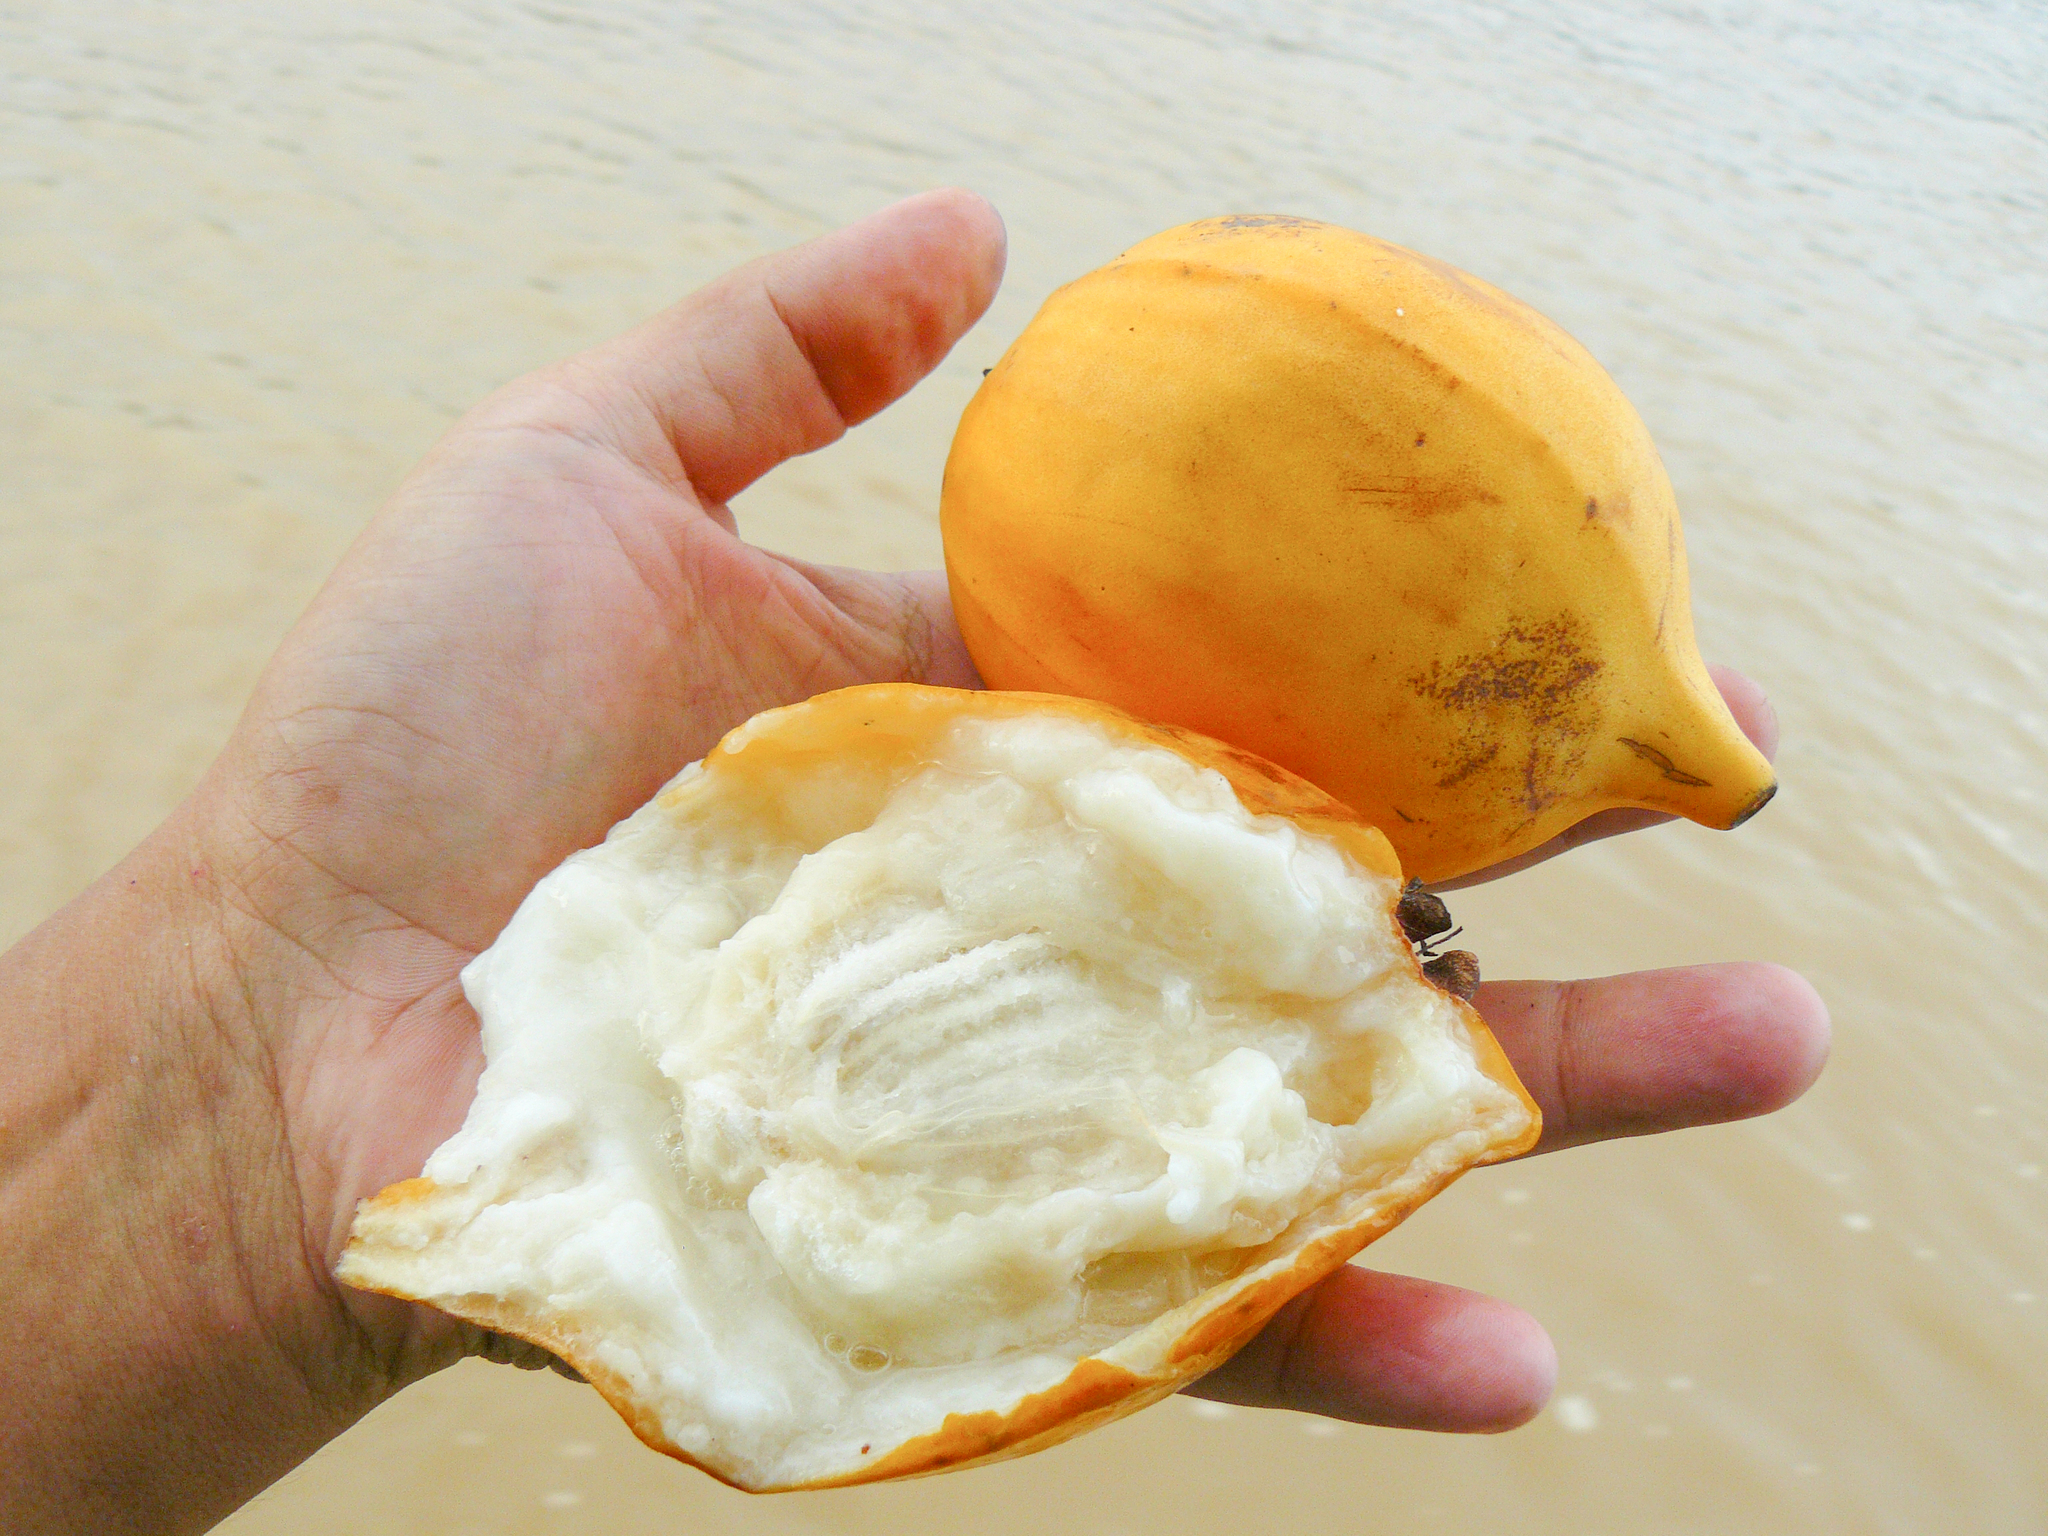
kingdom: Plantae
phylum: Tracheophyta
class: Magnoliopsida
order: Myrtales
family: Myrtaceae
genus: Plinia
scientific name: Plinia inflata
